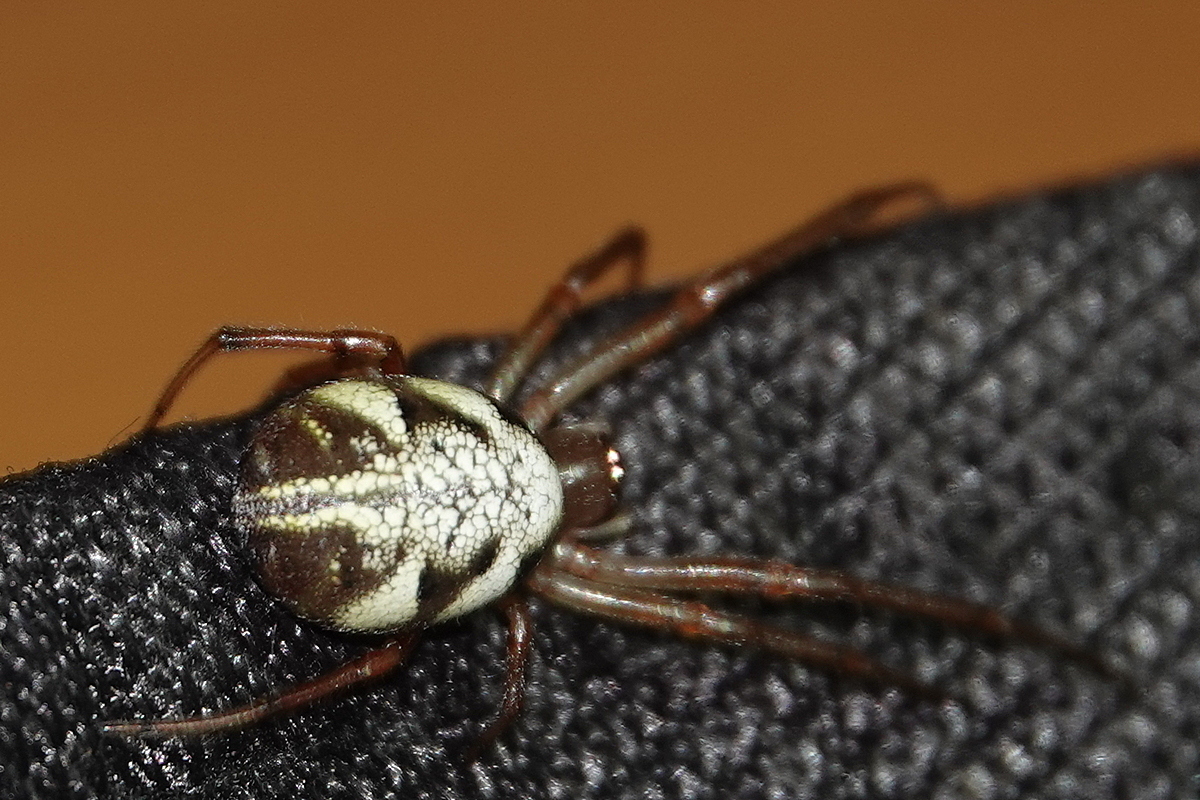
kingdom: Animalia
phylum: Arthropoda
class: Arachnida
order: Araneae
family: Araneidae
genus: Phonognatha
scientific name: Phonognatha graeffei
